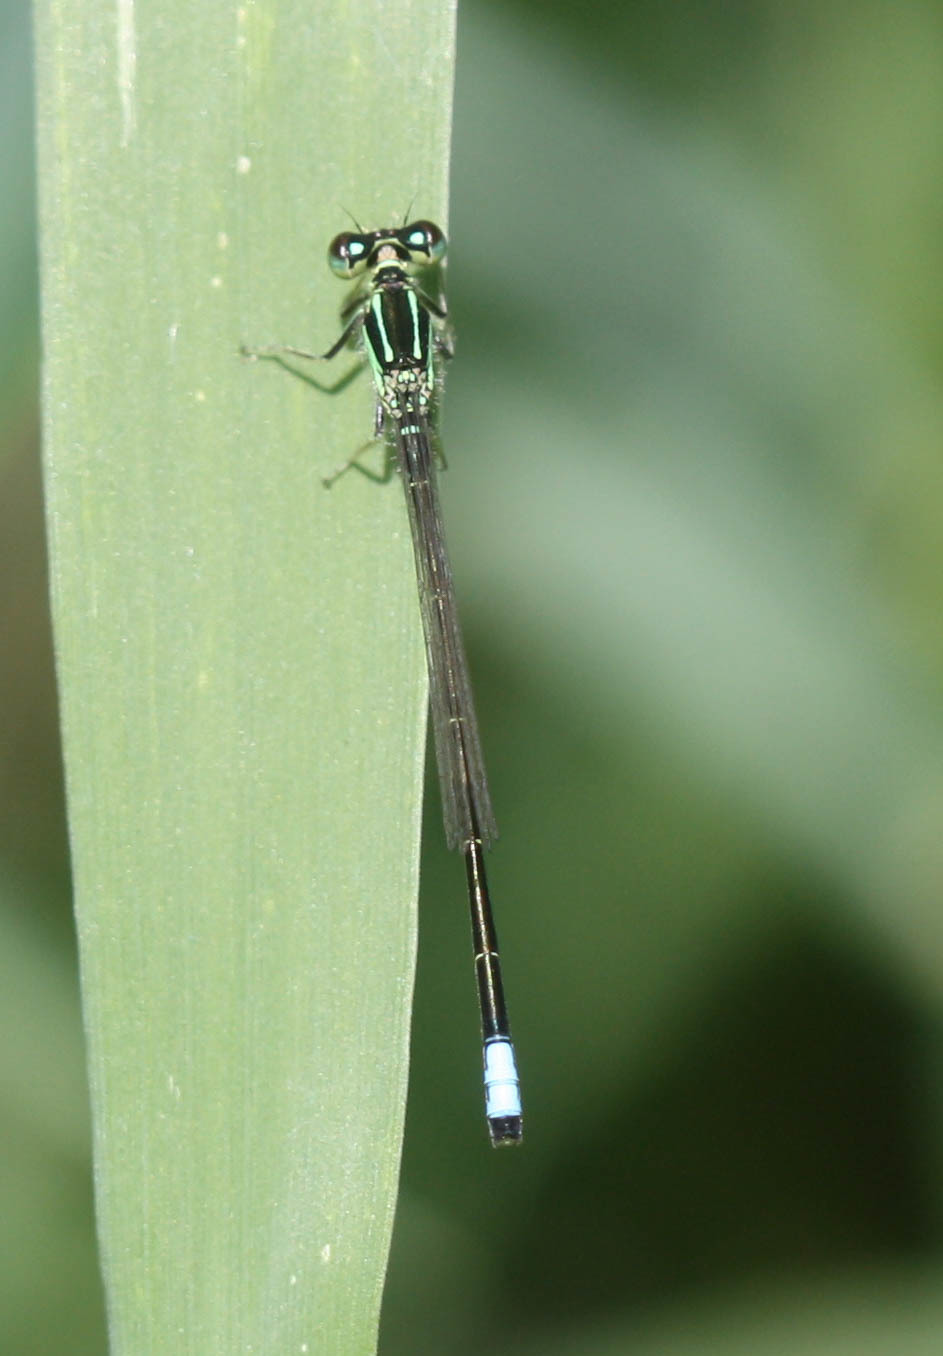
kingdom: Animalia
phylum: Arthropoda
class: Insecta
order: Odonata
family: Coenagrionidae
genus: Ischnura
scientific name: Ischnura verticalis
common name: Eastern forktail
